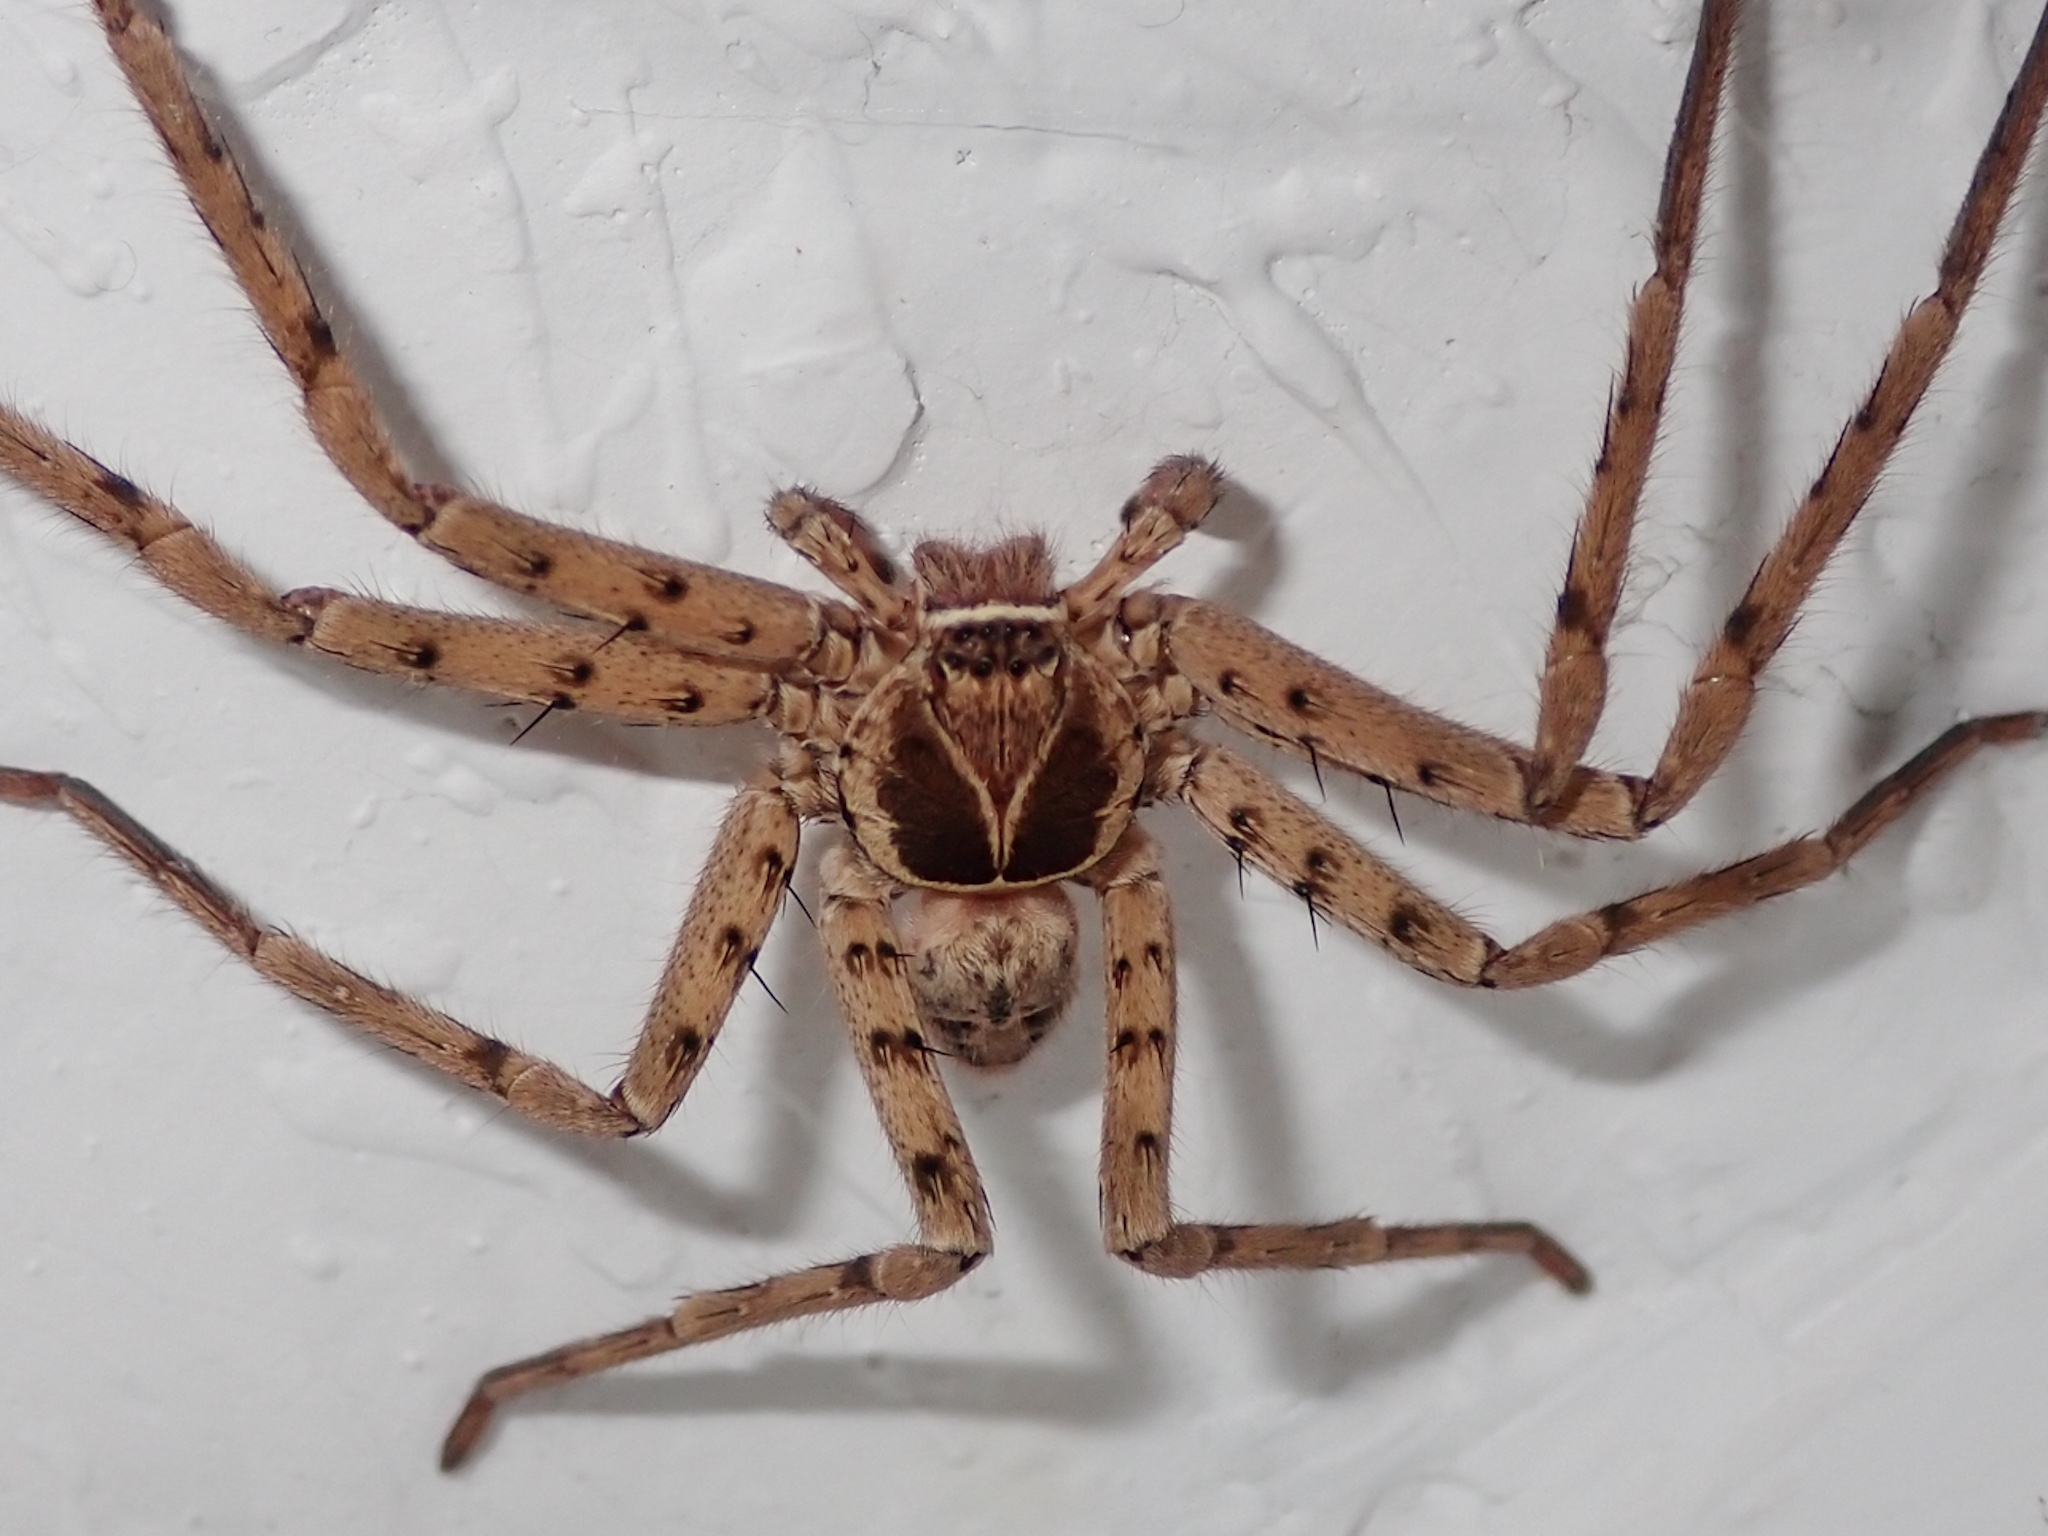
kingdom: Animalia
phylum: Arthropoda
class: Arachnida
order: Araneae
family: Sparassidae
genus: Heteropoda
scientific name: Heteropoda venatoria
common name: Huntsman spider
